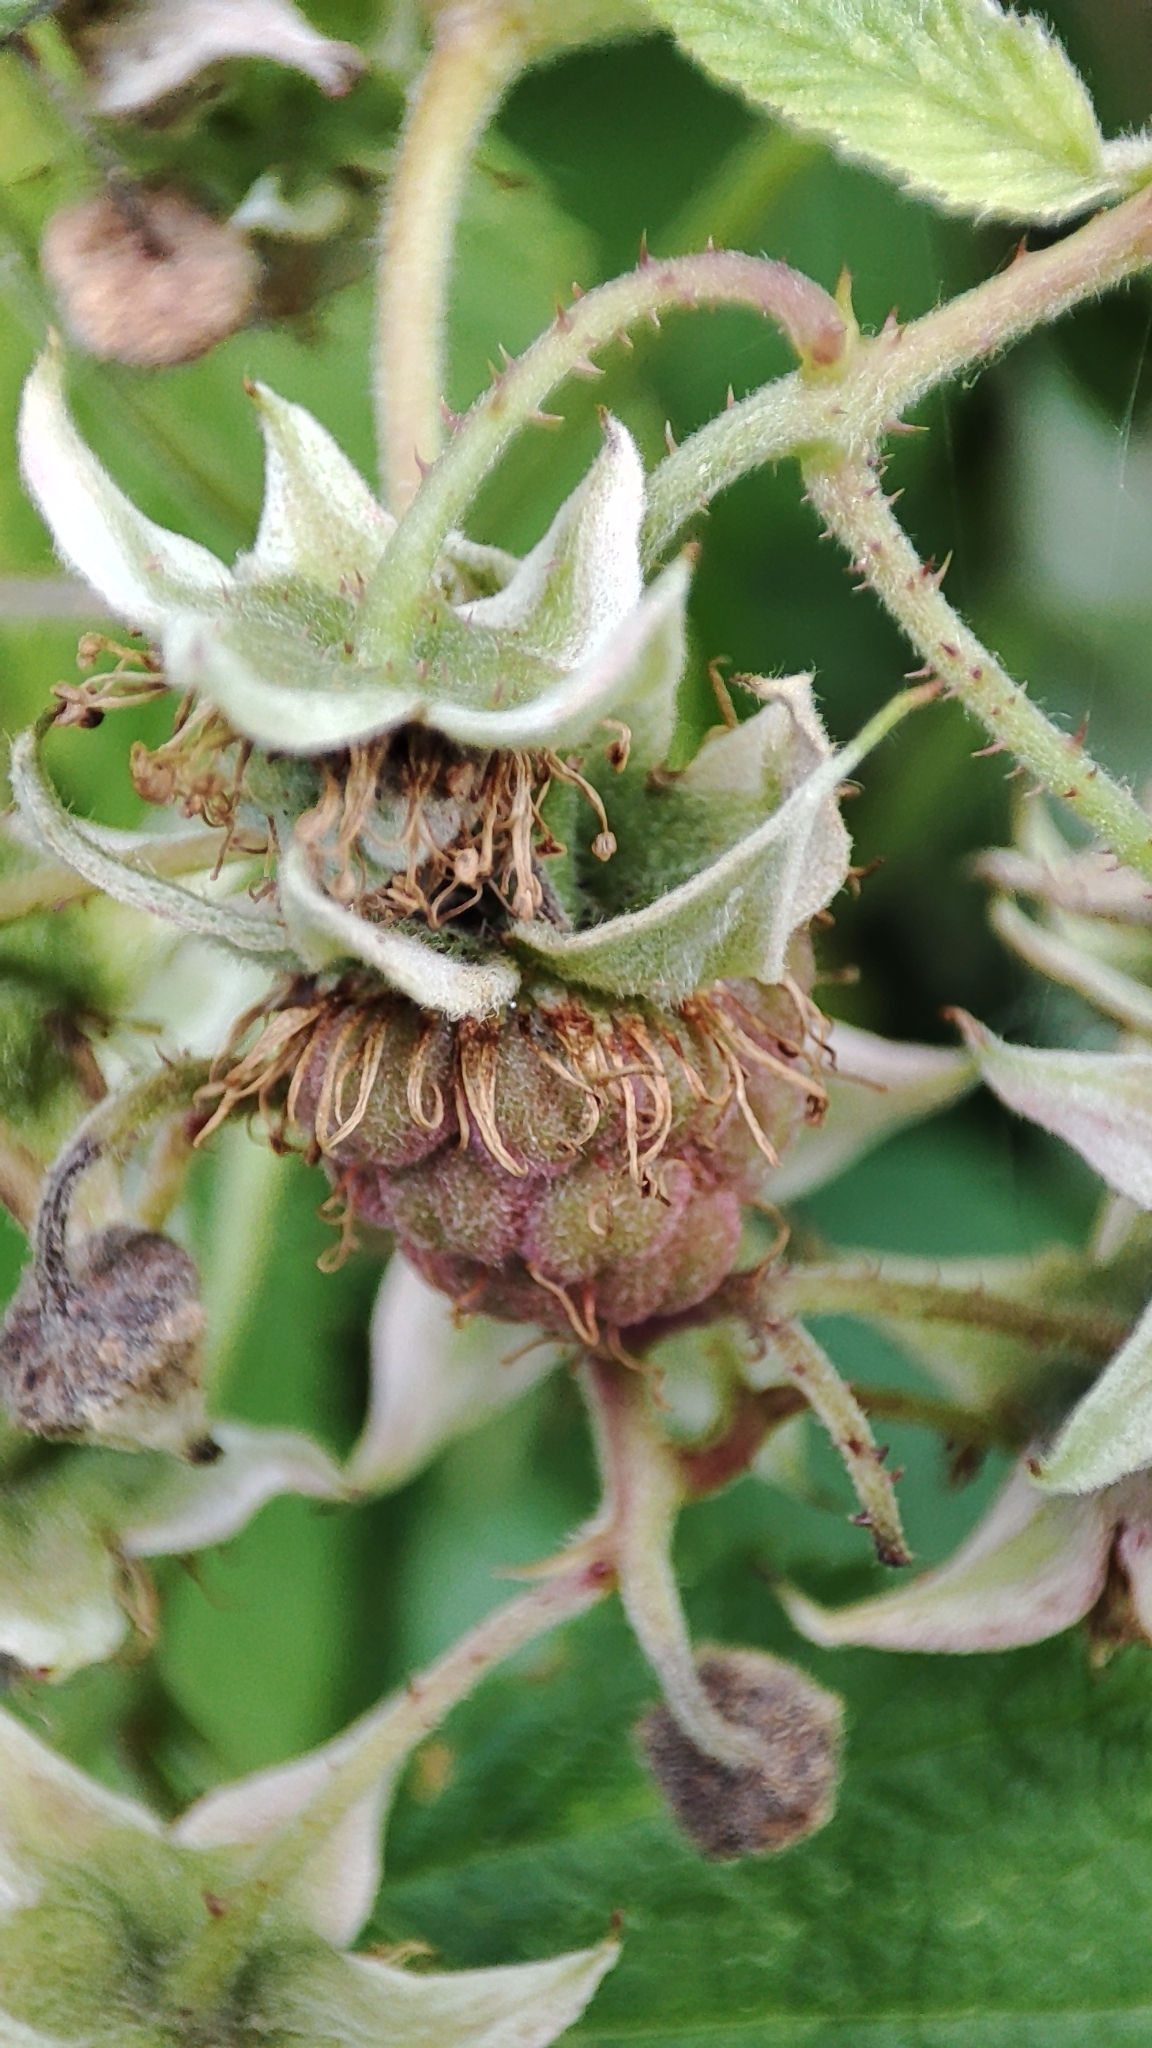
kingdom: Plantae
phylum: Tracheophyta
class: Magnoliopsida
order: Rosales
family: Rosaceae
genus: Rubus
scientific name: Rubus idaeus
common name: Raspberry
